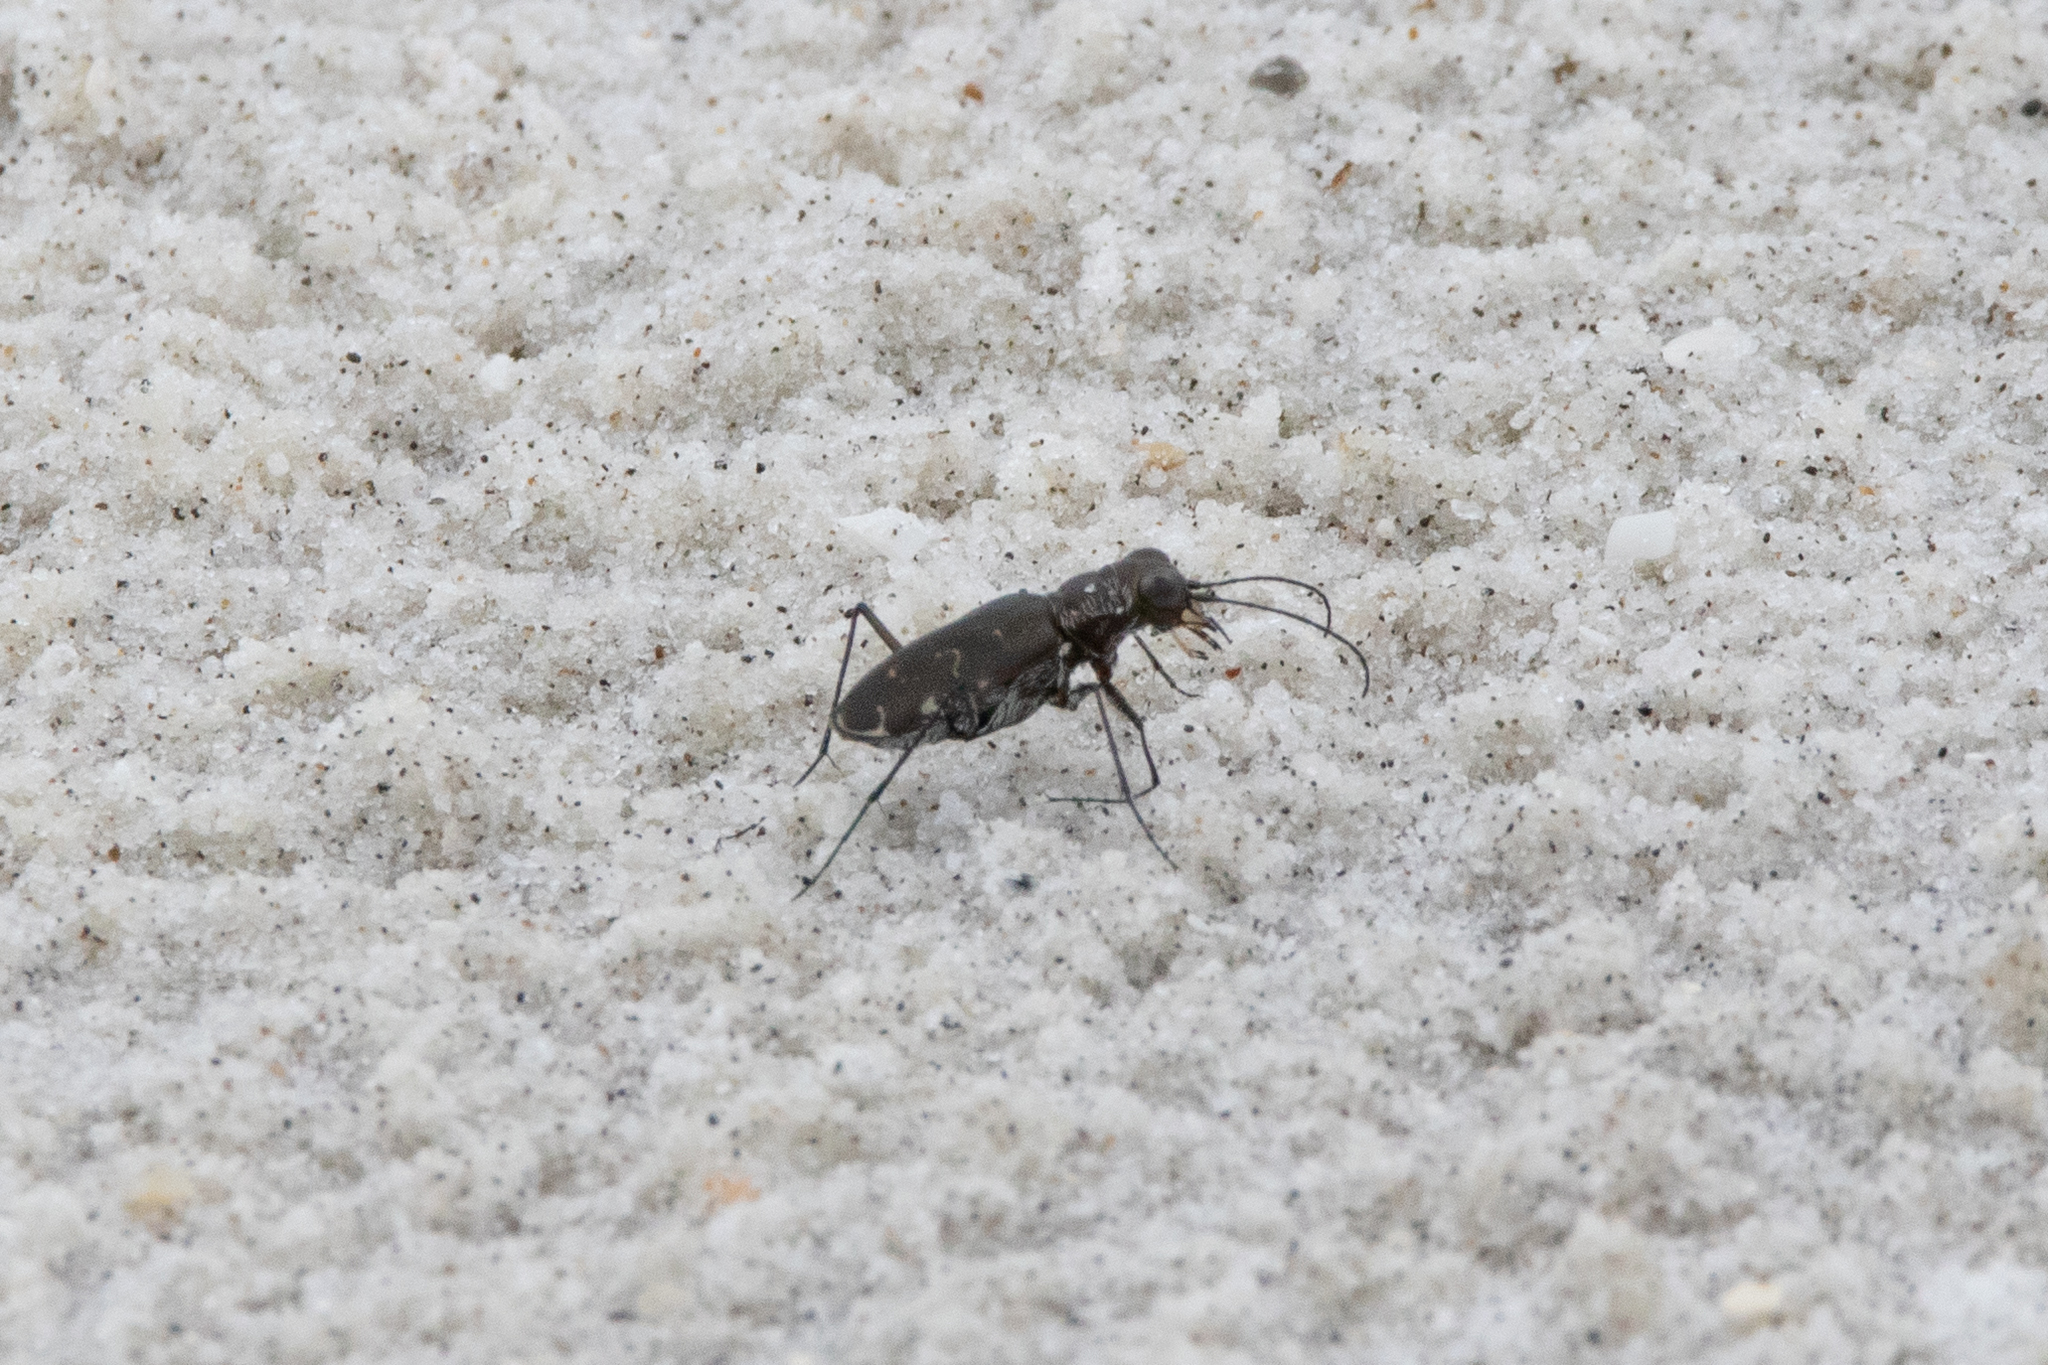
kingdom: Animalia
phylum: Arthropoda
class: Insecta
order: Coleoptera
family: Carabidae
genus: Cicindela
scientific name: Cicindela trifasciata
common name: Mudflat tiger beetle
